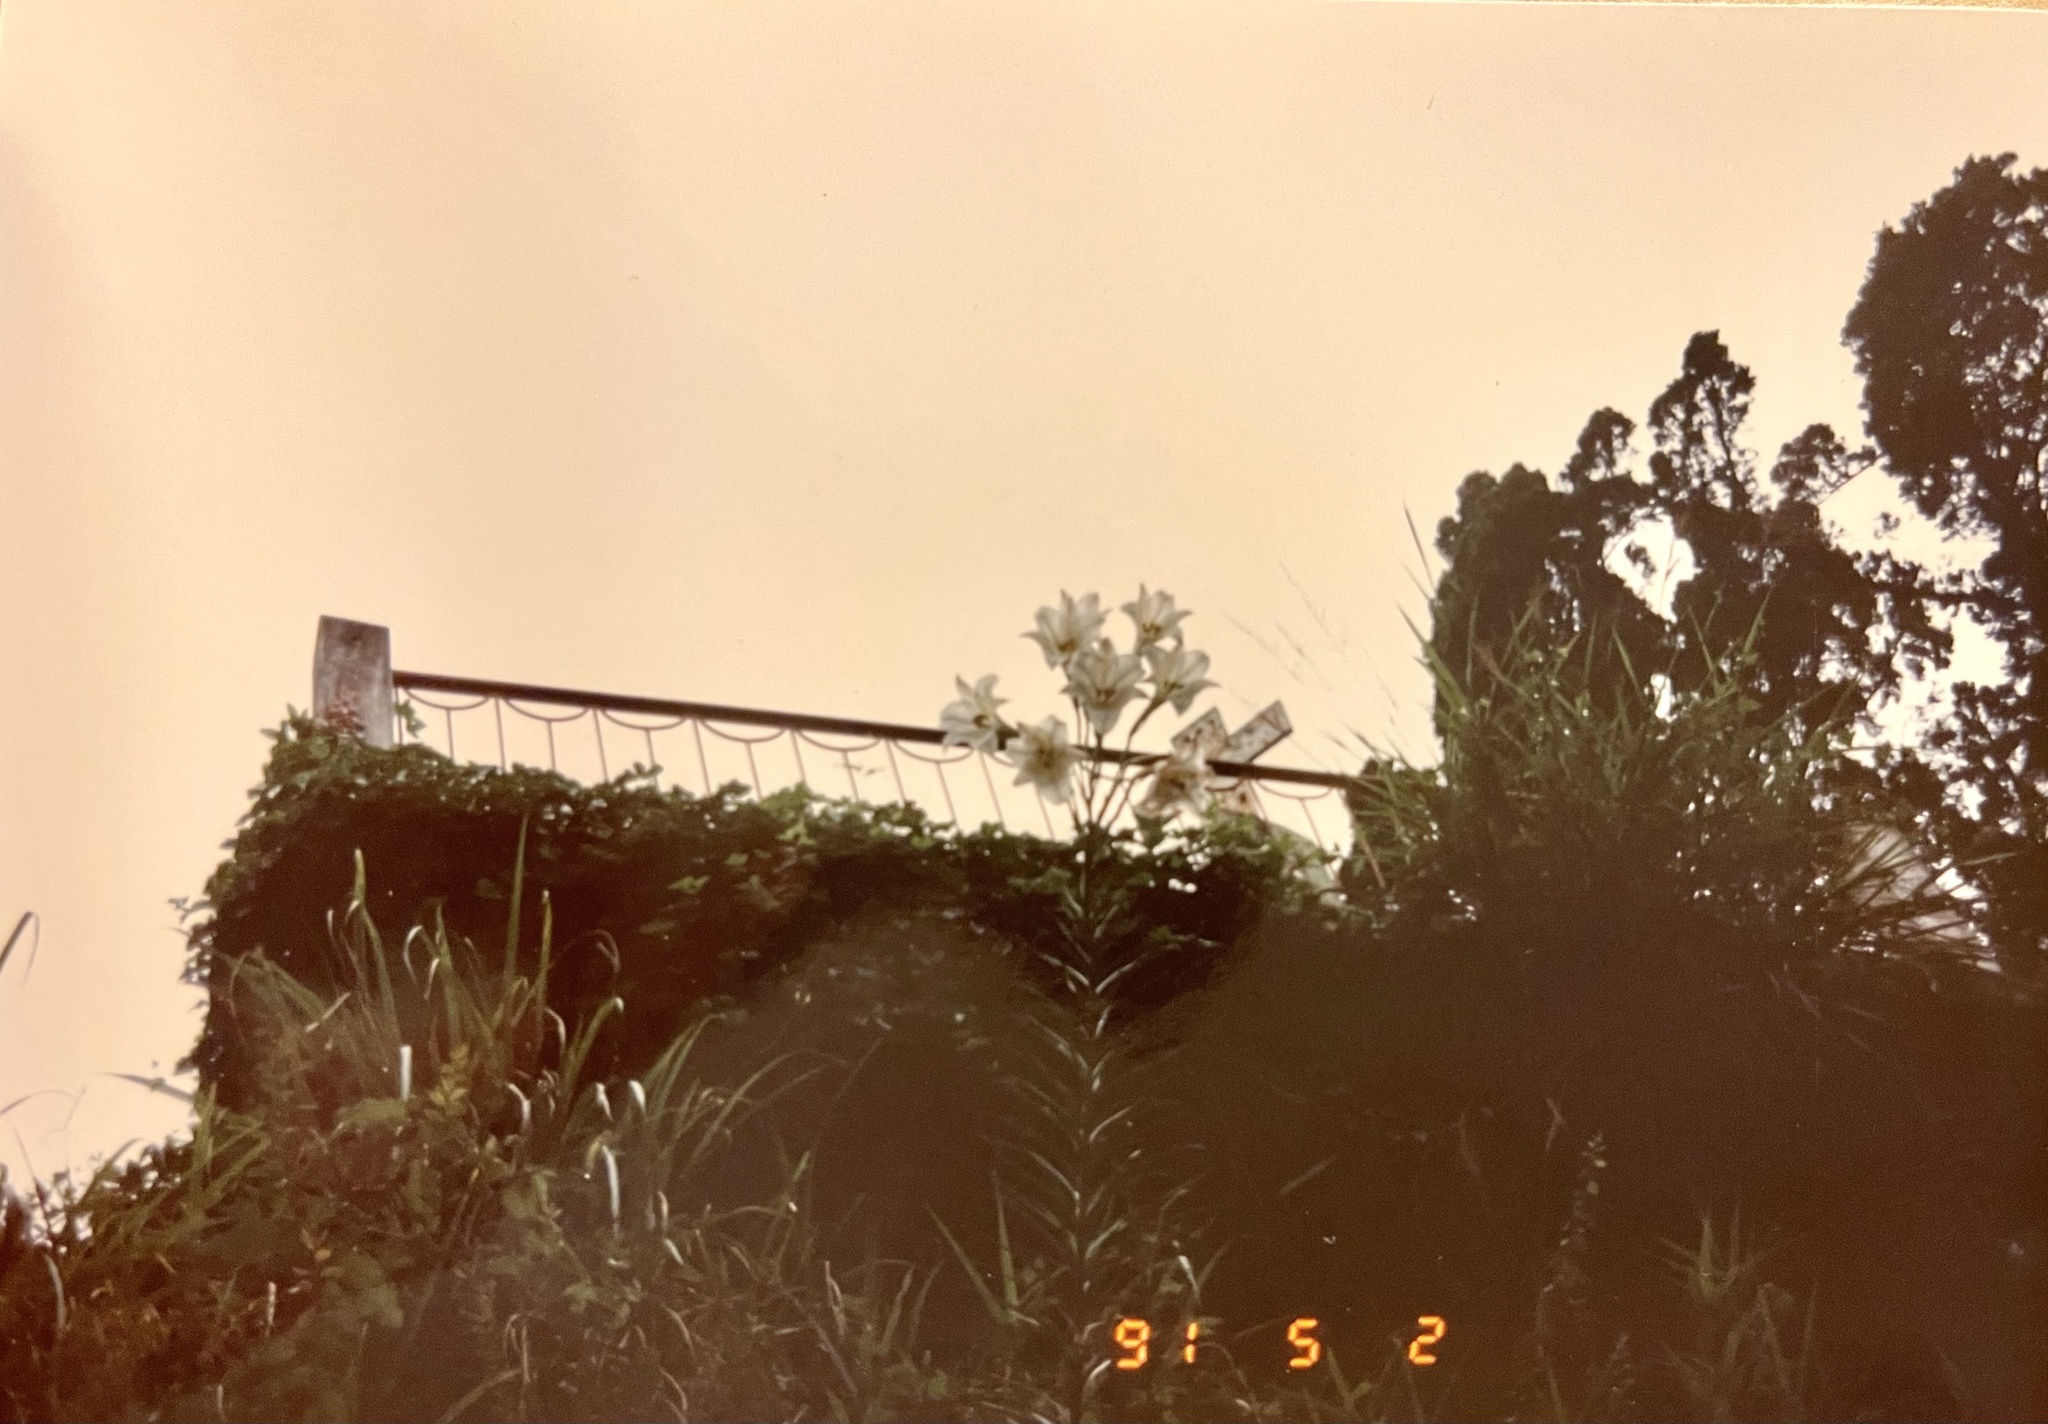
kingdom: Plantae
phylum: Tracheophyta
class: Liliopsida
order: Liliales
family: Liliaceae
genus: Lilium
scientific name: Lilium formosanum
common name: Formosa lily
